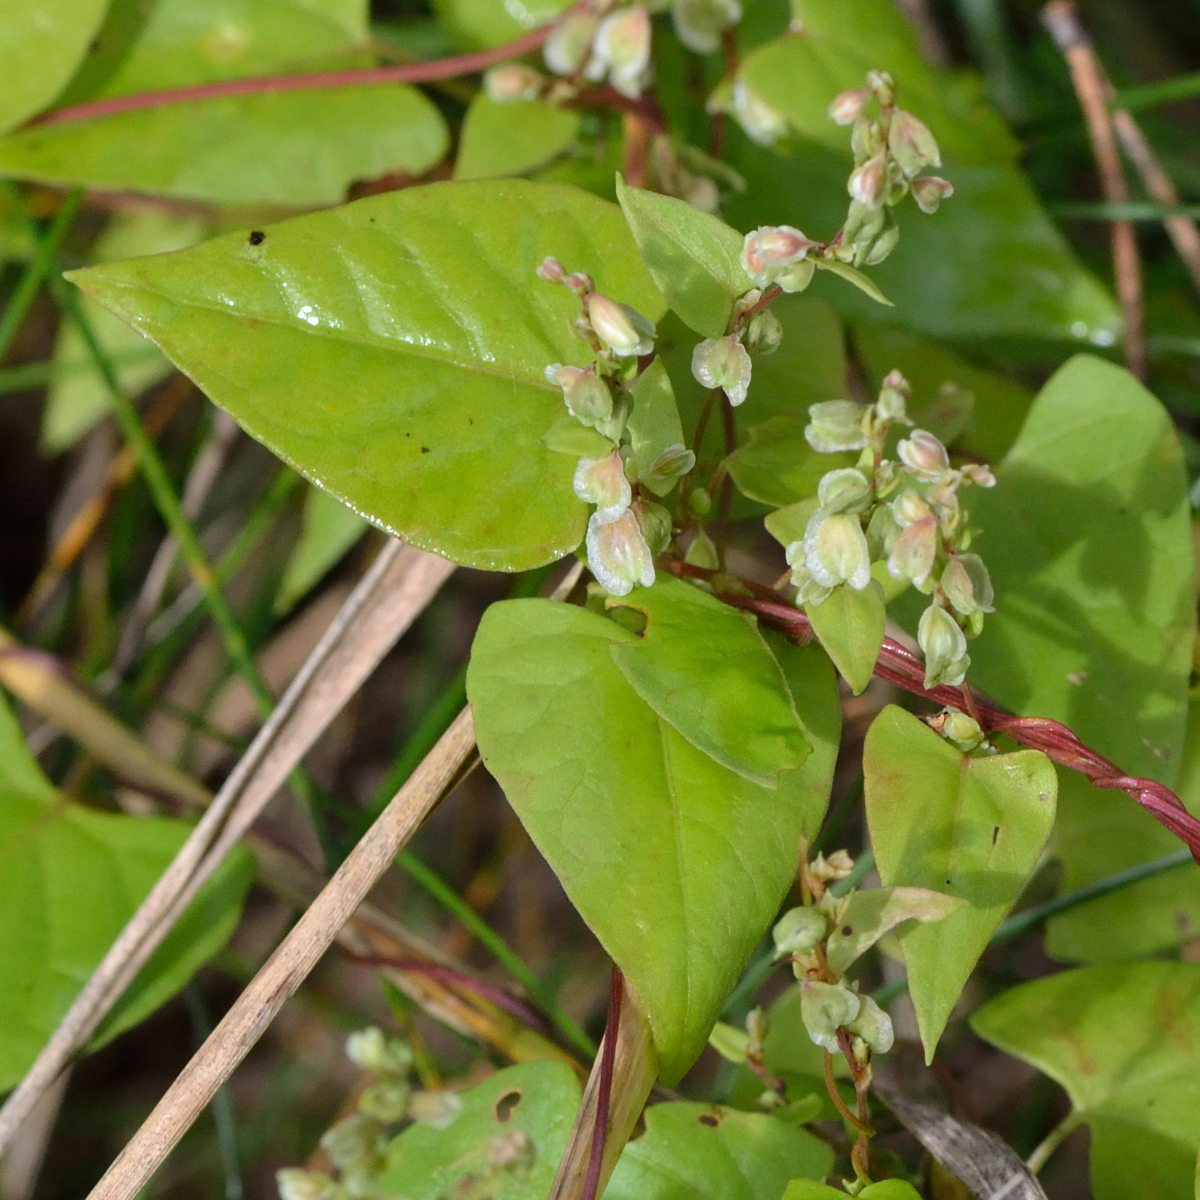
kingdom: Plantae
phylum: Tracheophyta
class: Magnoliopsida
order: Caryophyllales
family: Polygonaceae
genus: Fallopia
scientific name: Fallopia dumetorum
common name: Copse-bindweed
